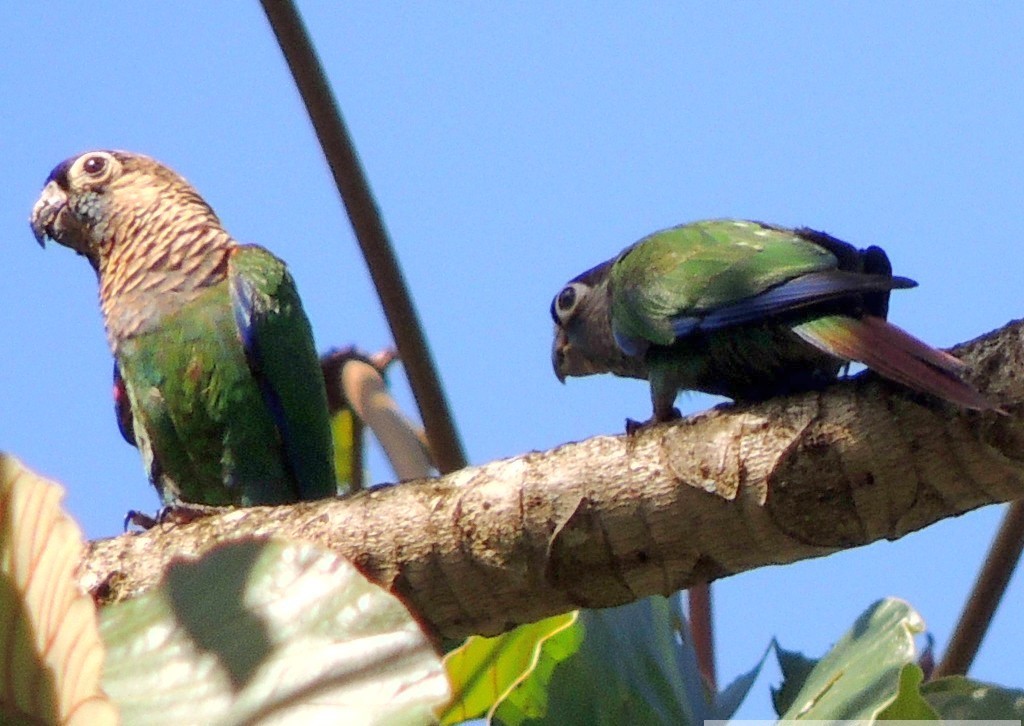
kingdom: Animalia
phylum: Chordata
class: Aves
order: Psittaciformes
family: Psittacidae
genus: Pyrrhura
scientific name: Pyrrhura lepida
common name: Pearly parakeet
